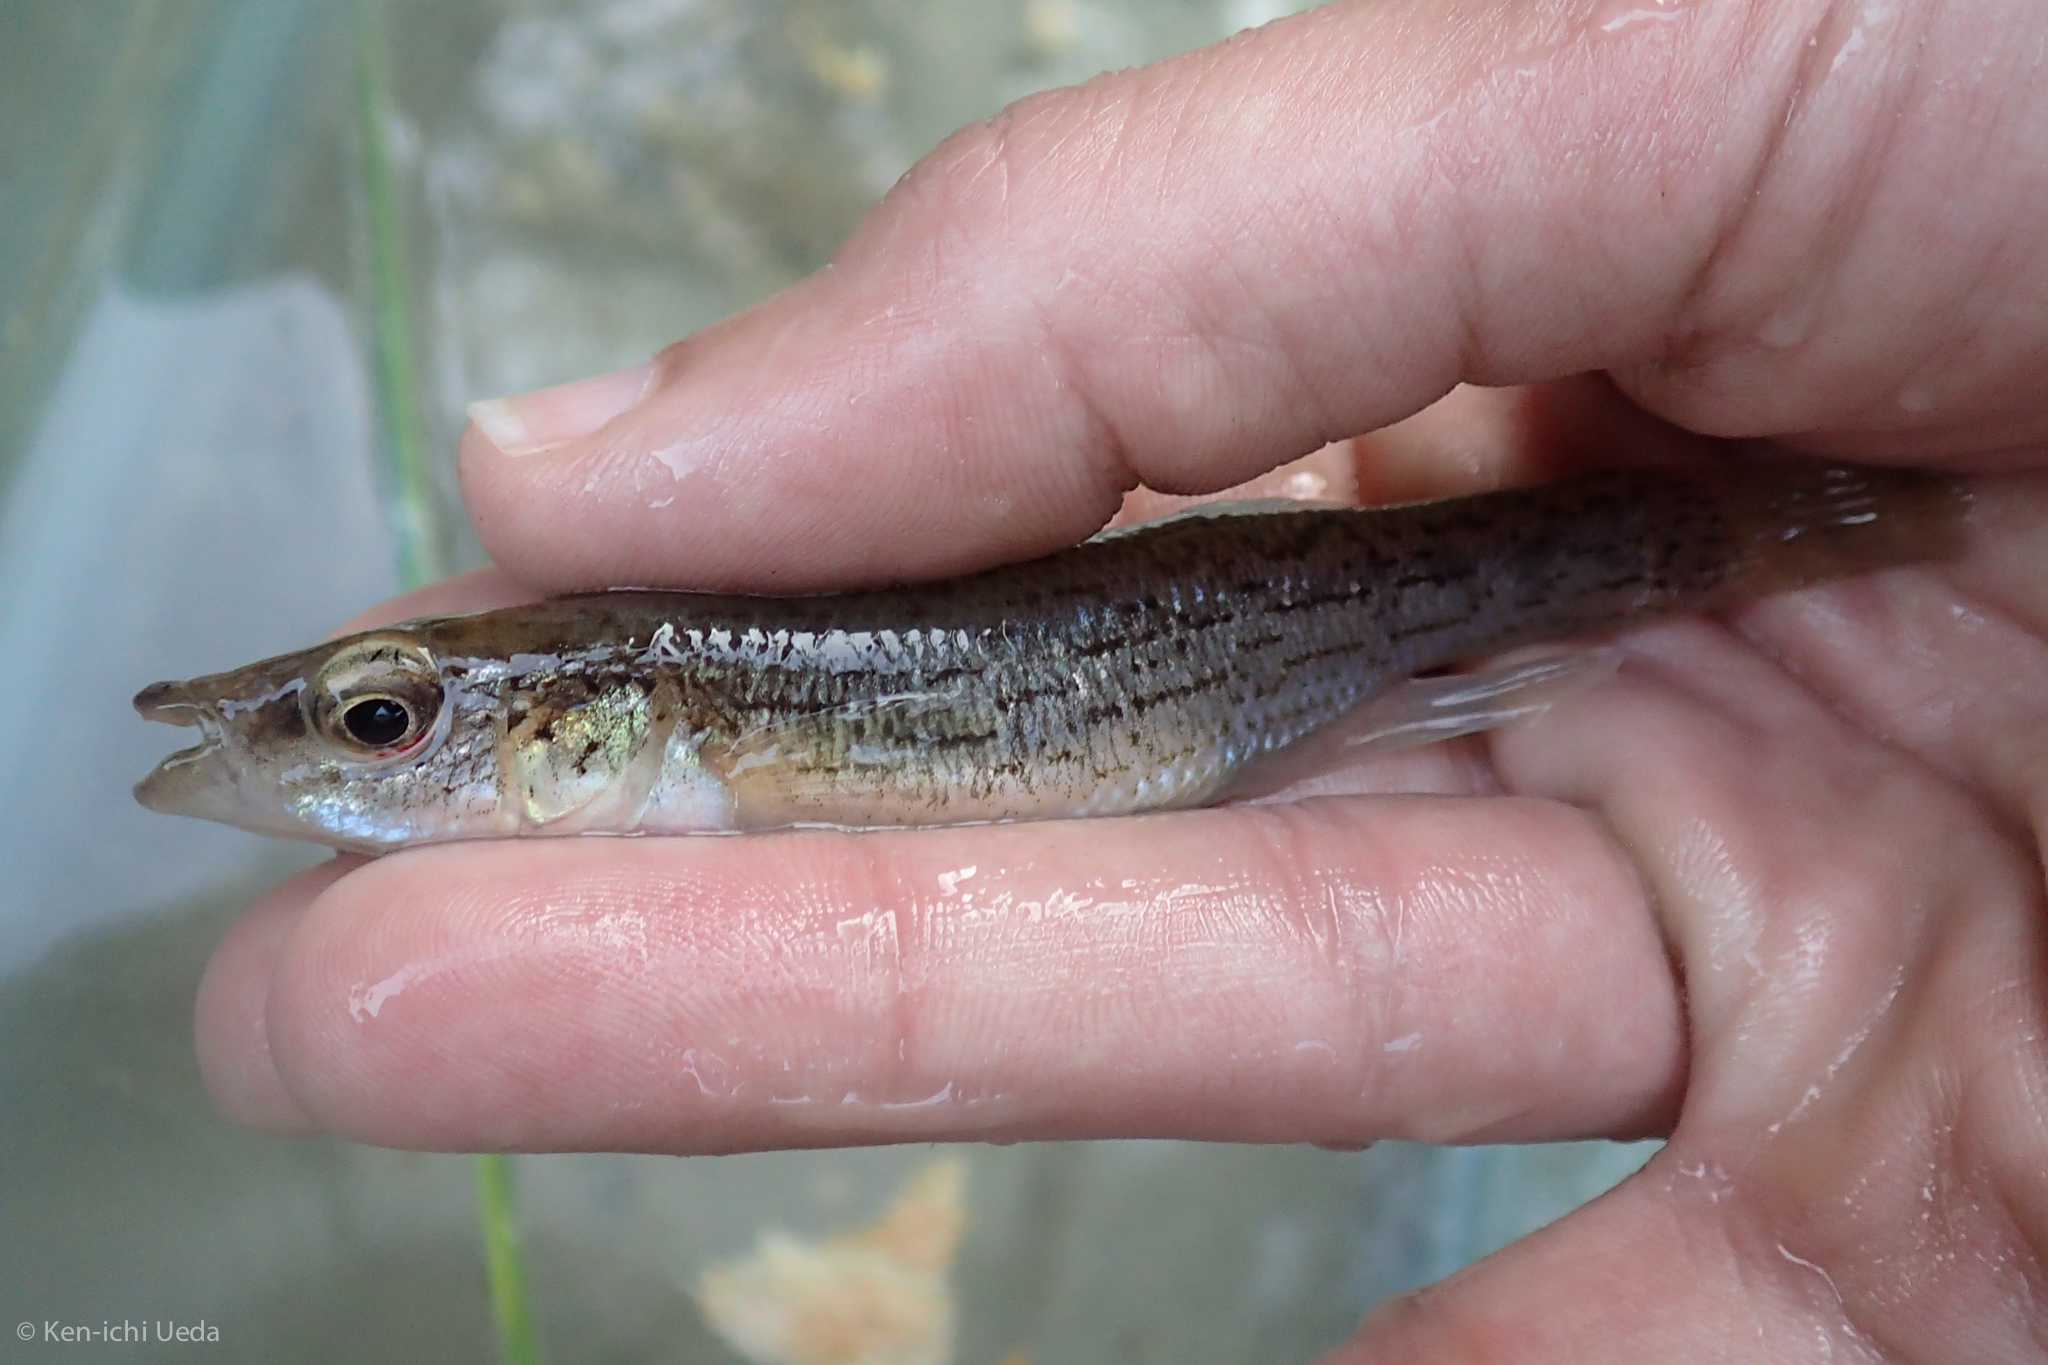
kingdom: Animalia
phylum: Chordata
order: Cyprinodontiformes
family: Fundulidae
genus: Fundulus
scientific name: Fundulus catenatus
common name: Northern studfish
